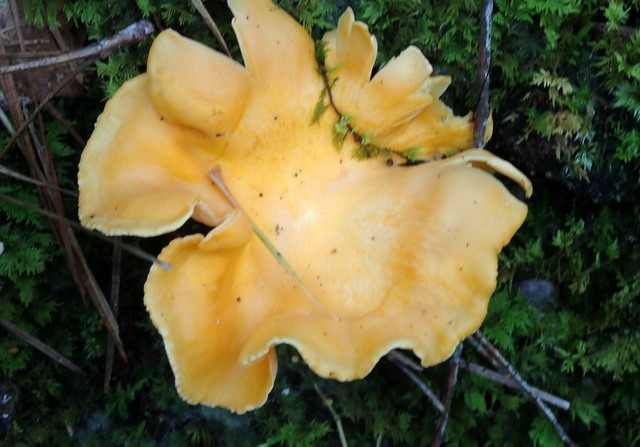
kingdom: Fungi
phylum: Basidiomycota
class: Agaricomycetes
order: Cantharellales
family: Hydnaceae
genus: Cantharellus
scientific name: Cantharellus lateritius
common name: Smooth chanterelle
